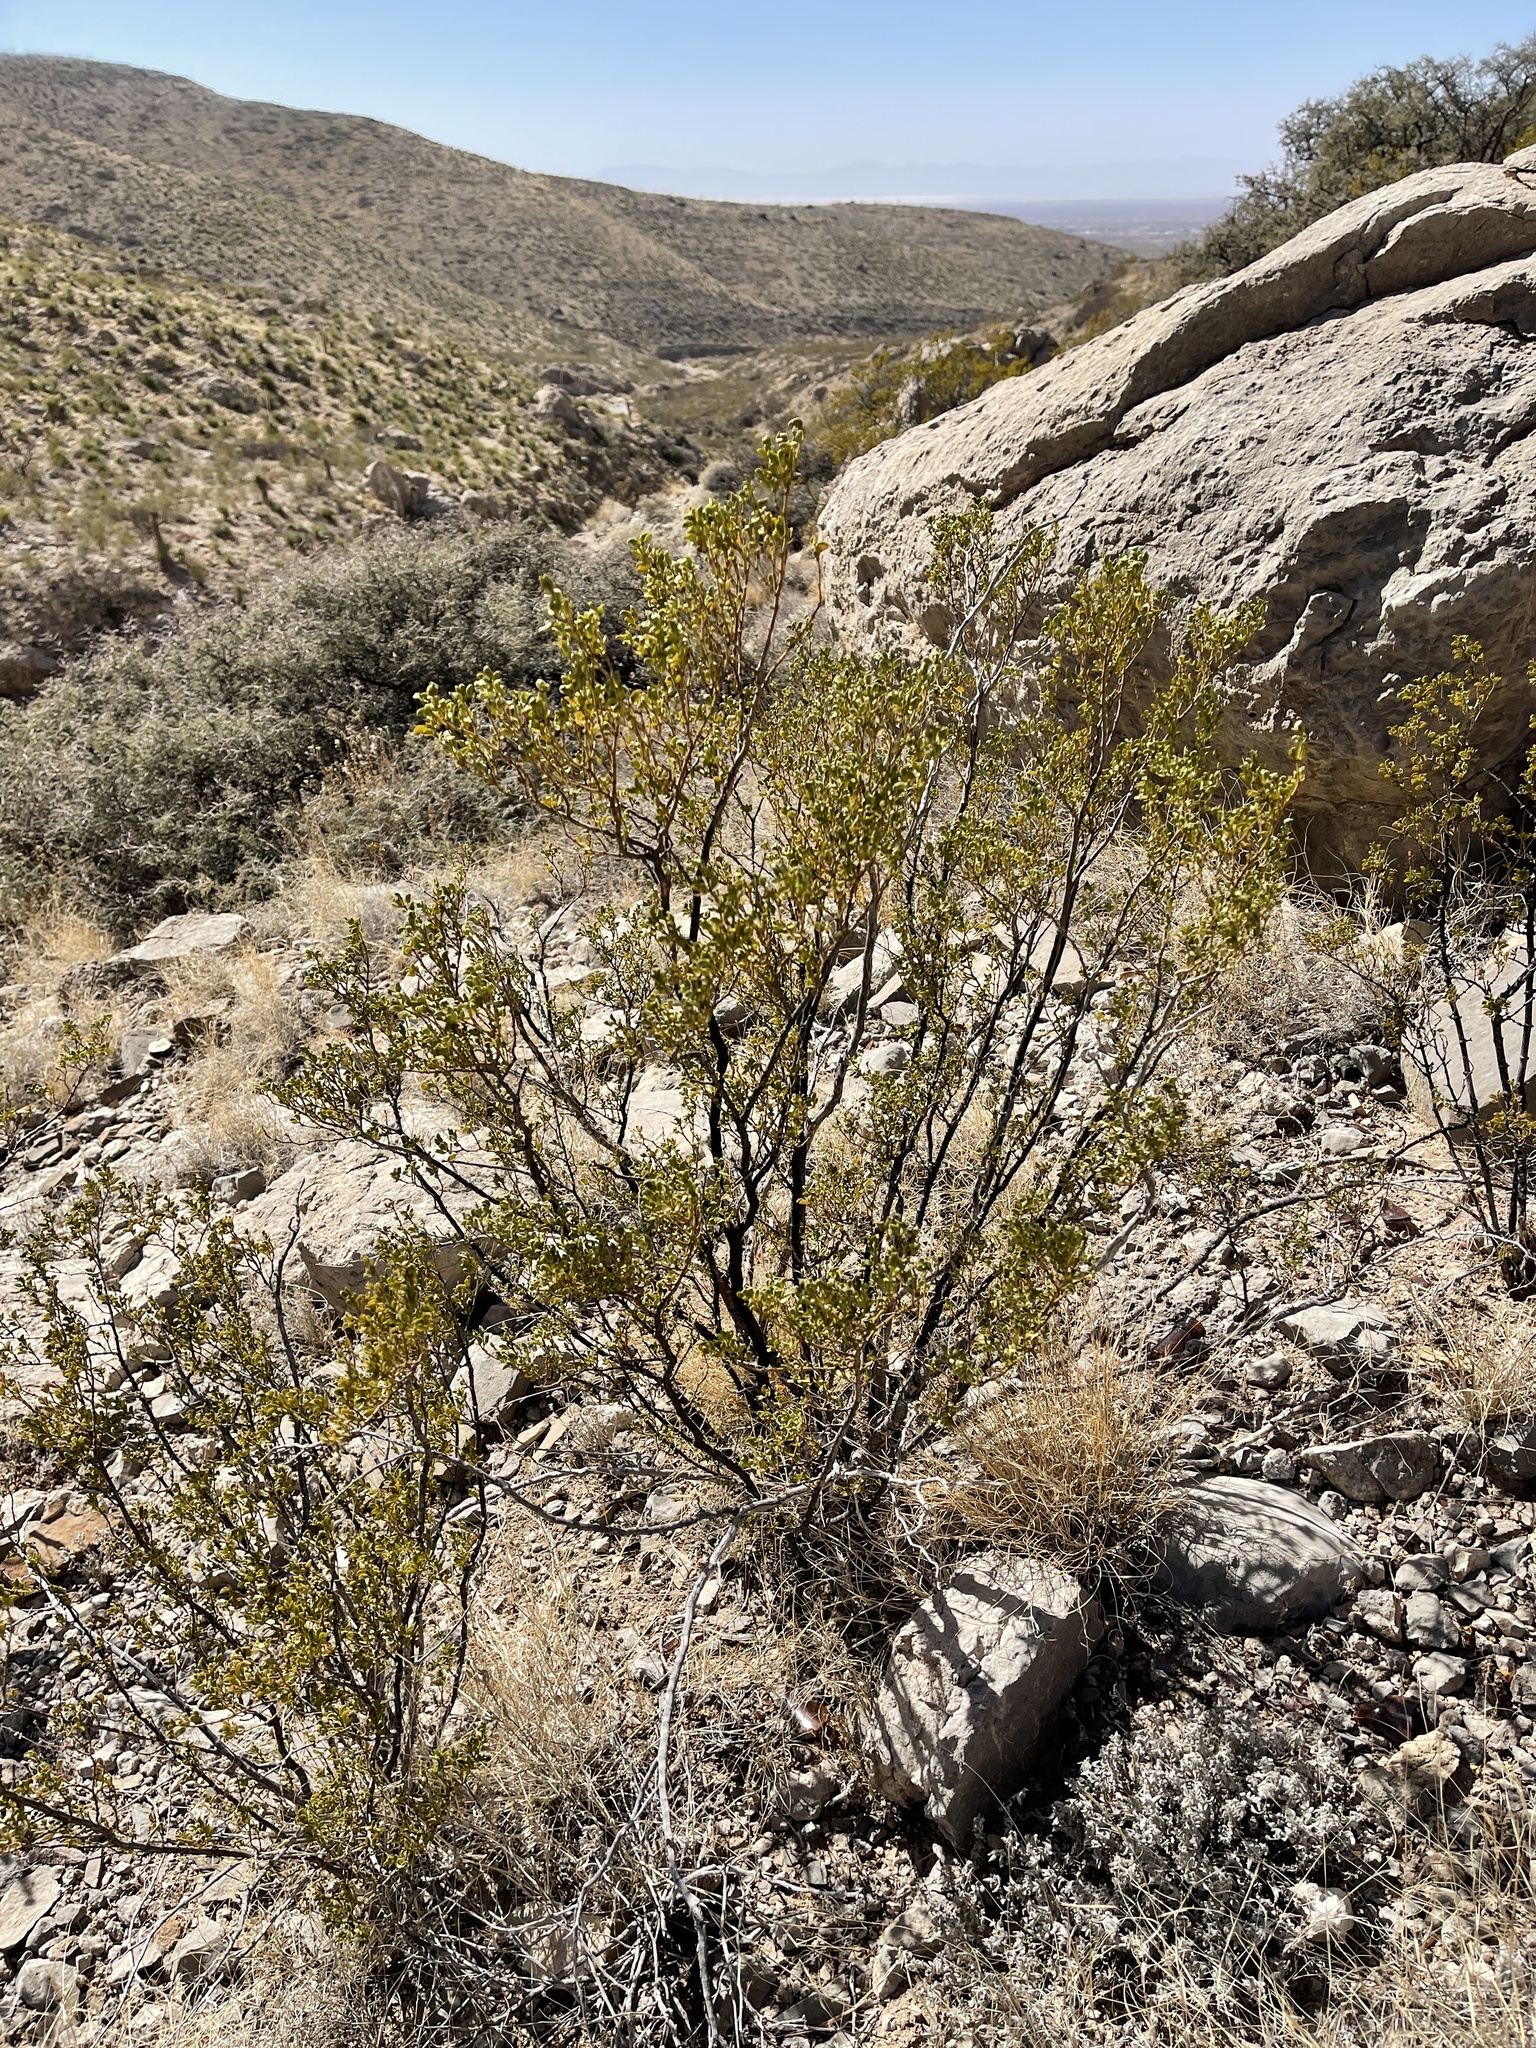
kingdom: Plantae
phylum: Tracheophyta
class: Magnoliopsida
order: Zygophyllales
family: Zygophyllaceae
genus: Larrea
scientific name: Larrea tridentata
